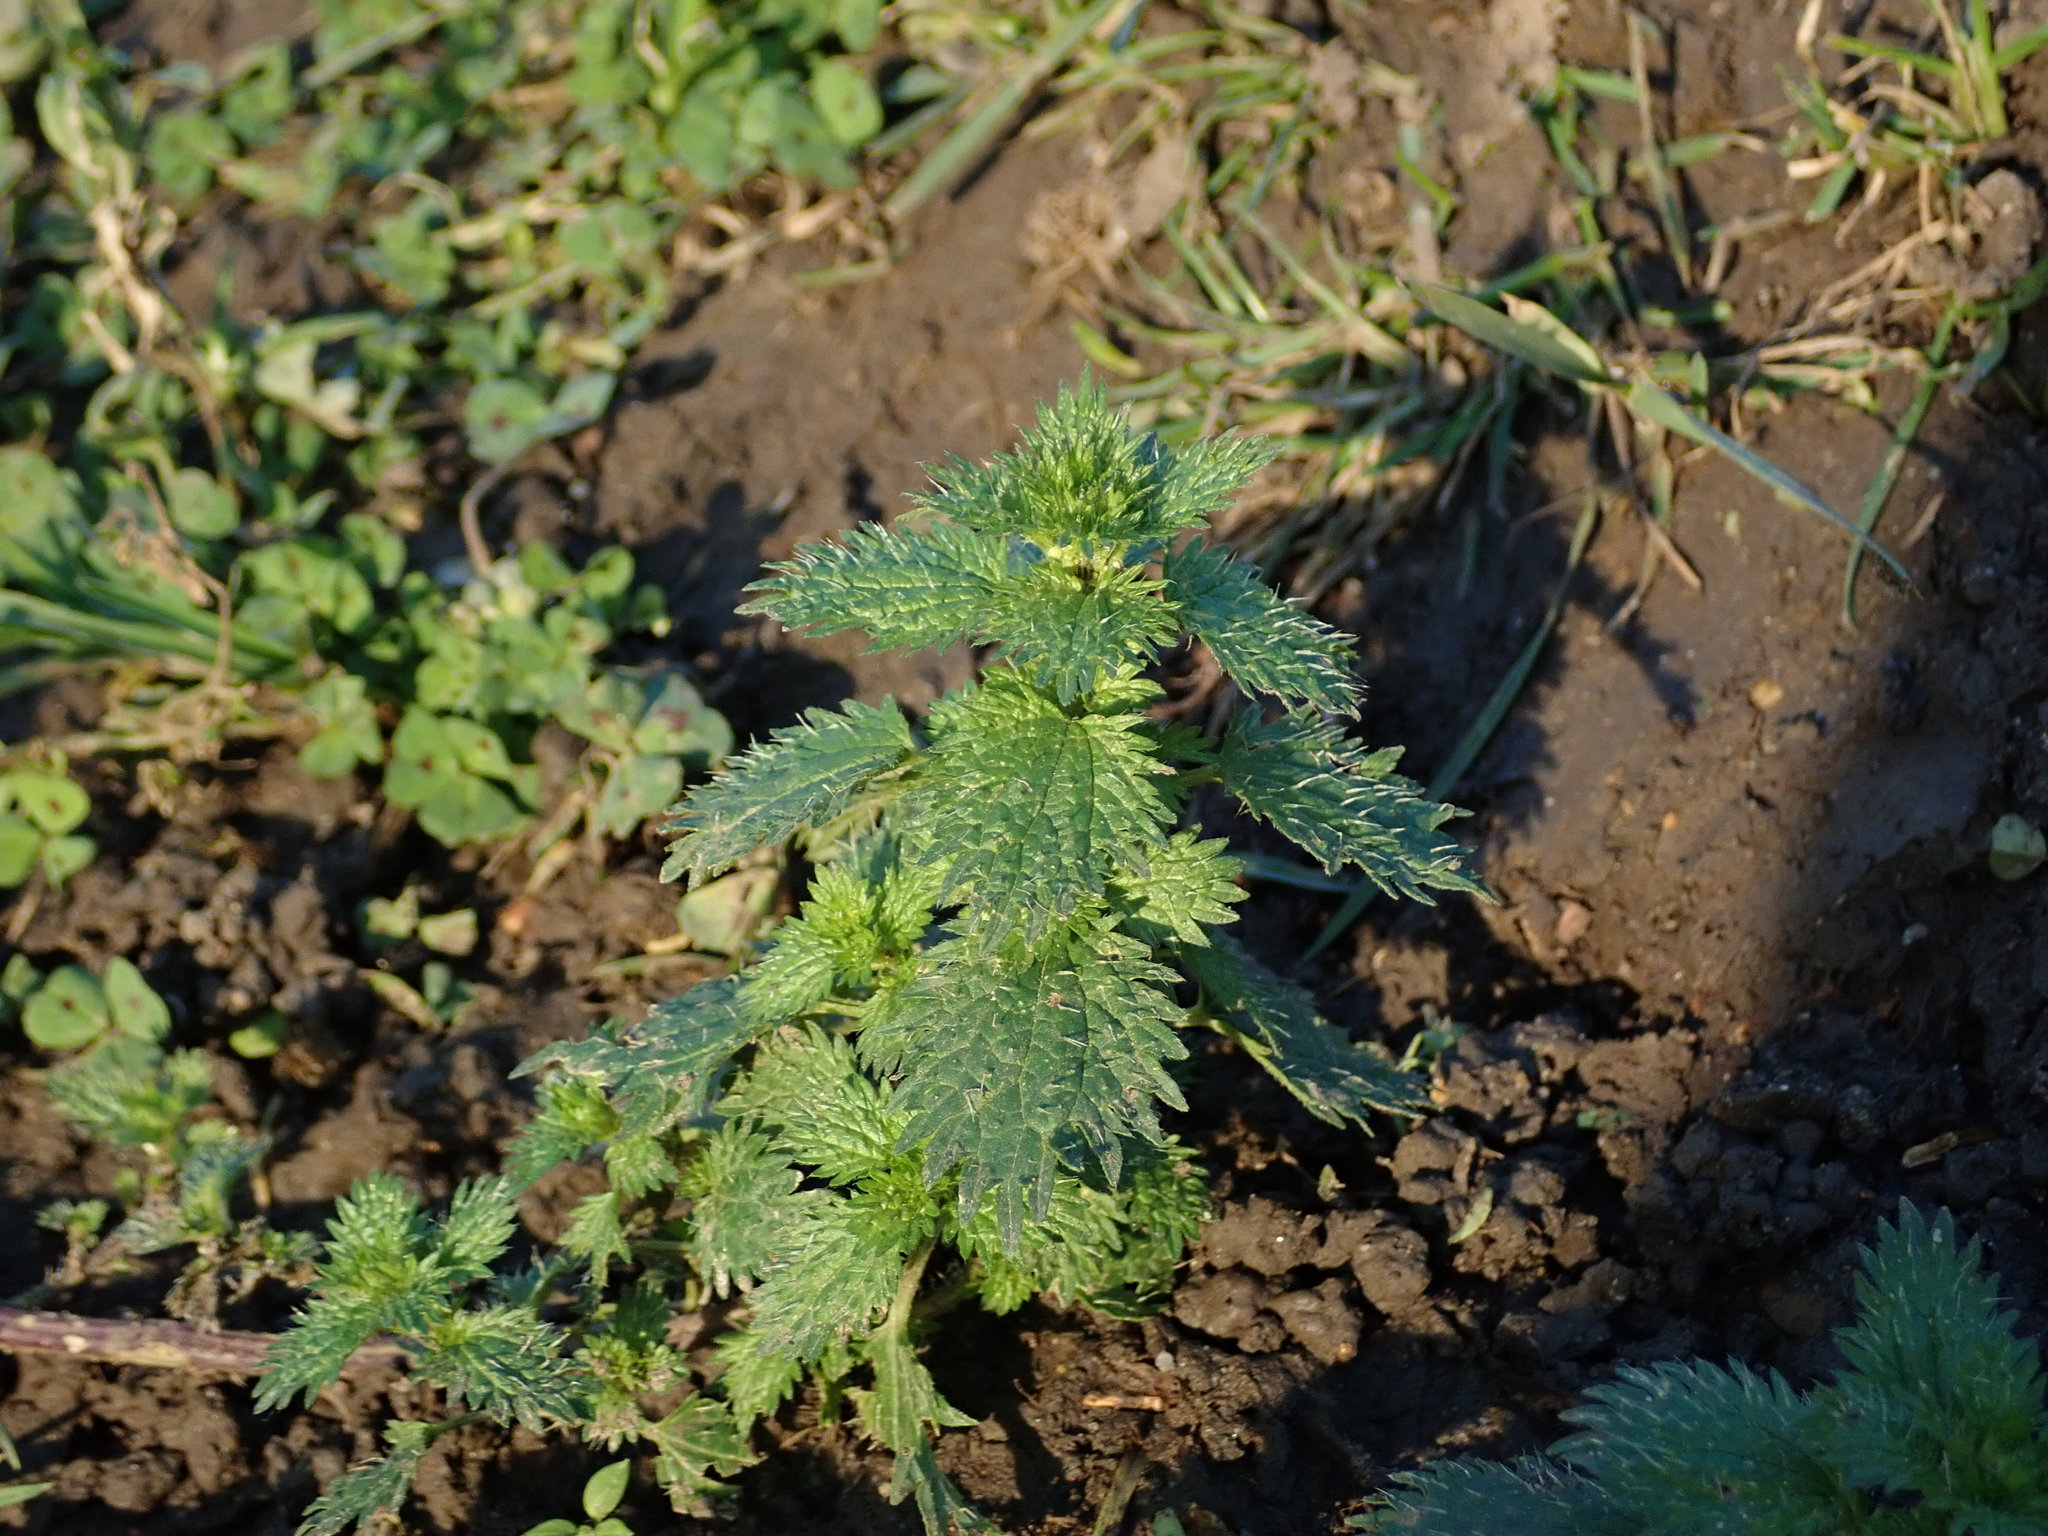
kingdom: Plantae
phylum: Tracheophyta
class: Magnoliopsida
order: Rosales
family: Urticaceae
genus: Urtica
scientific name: Urtica urens
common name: Dwarf nettle
